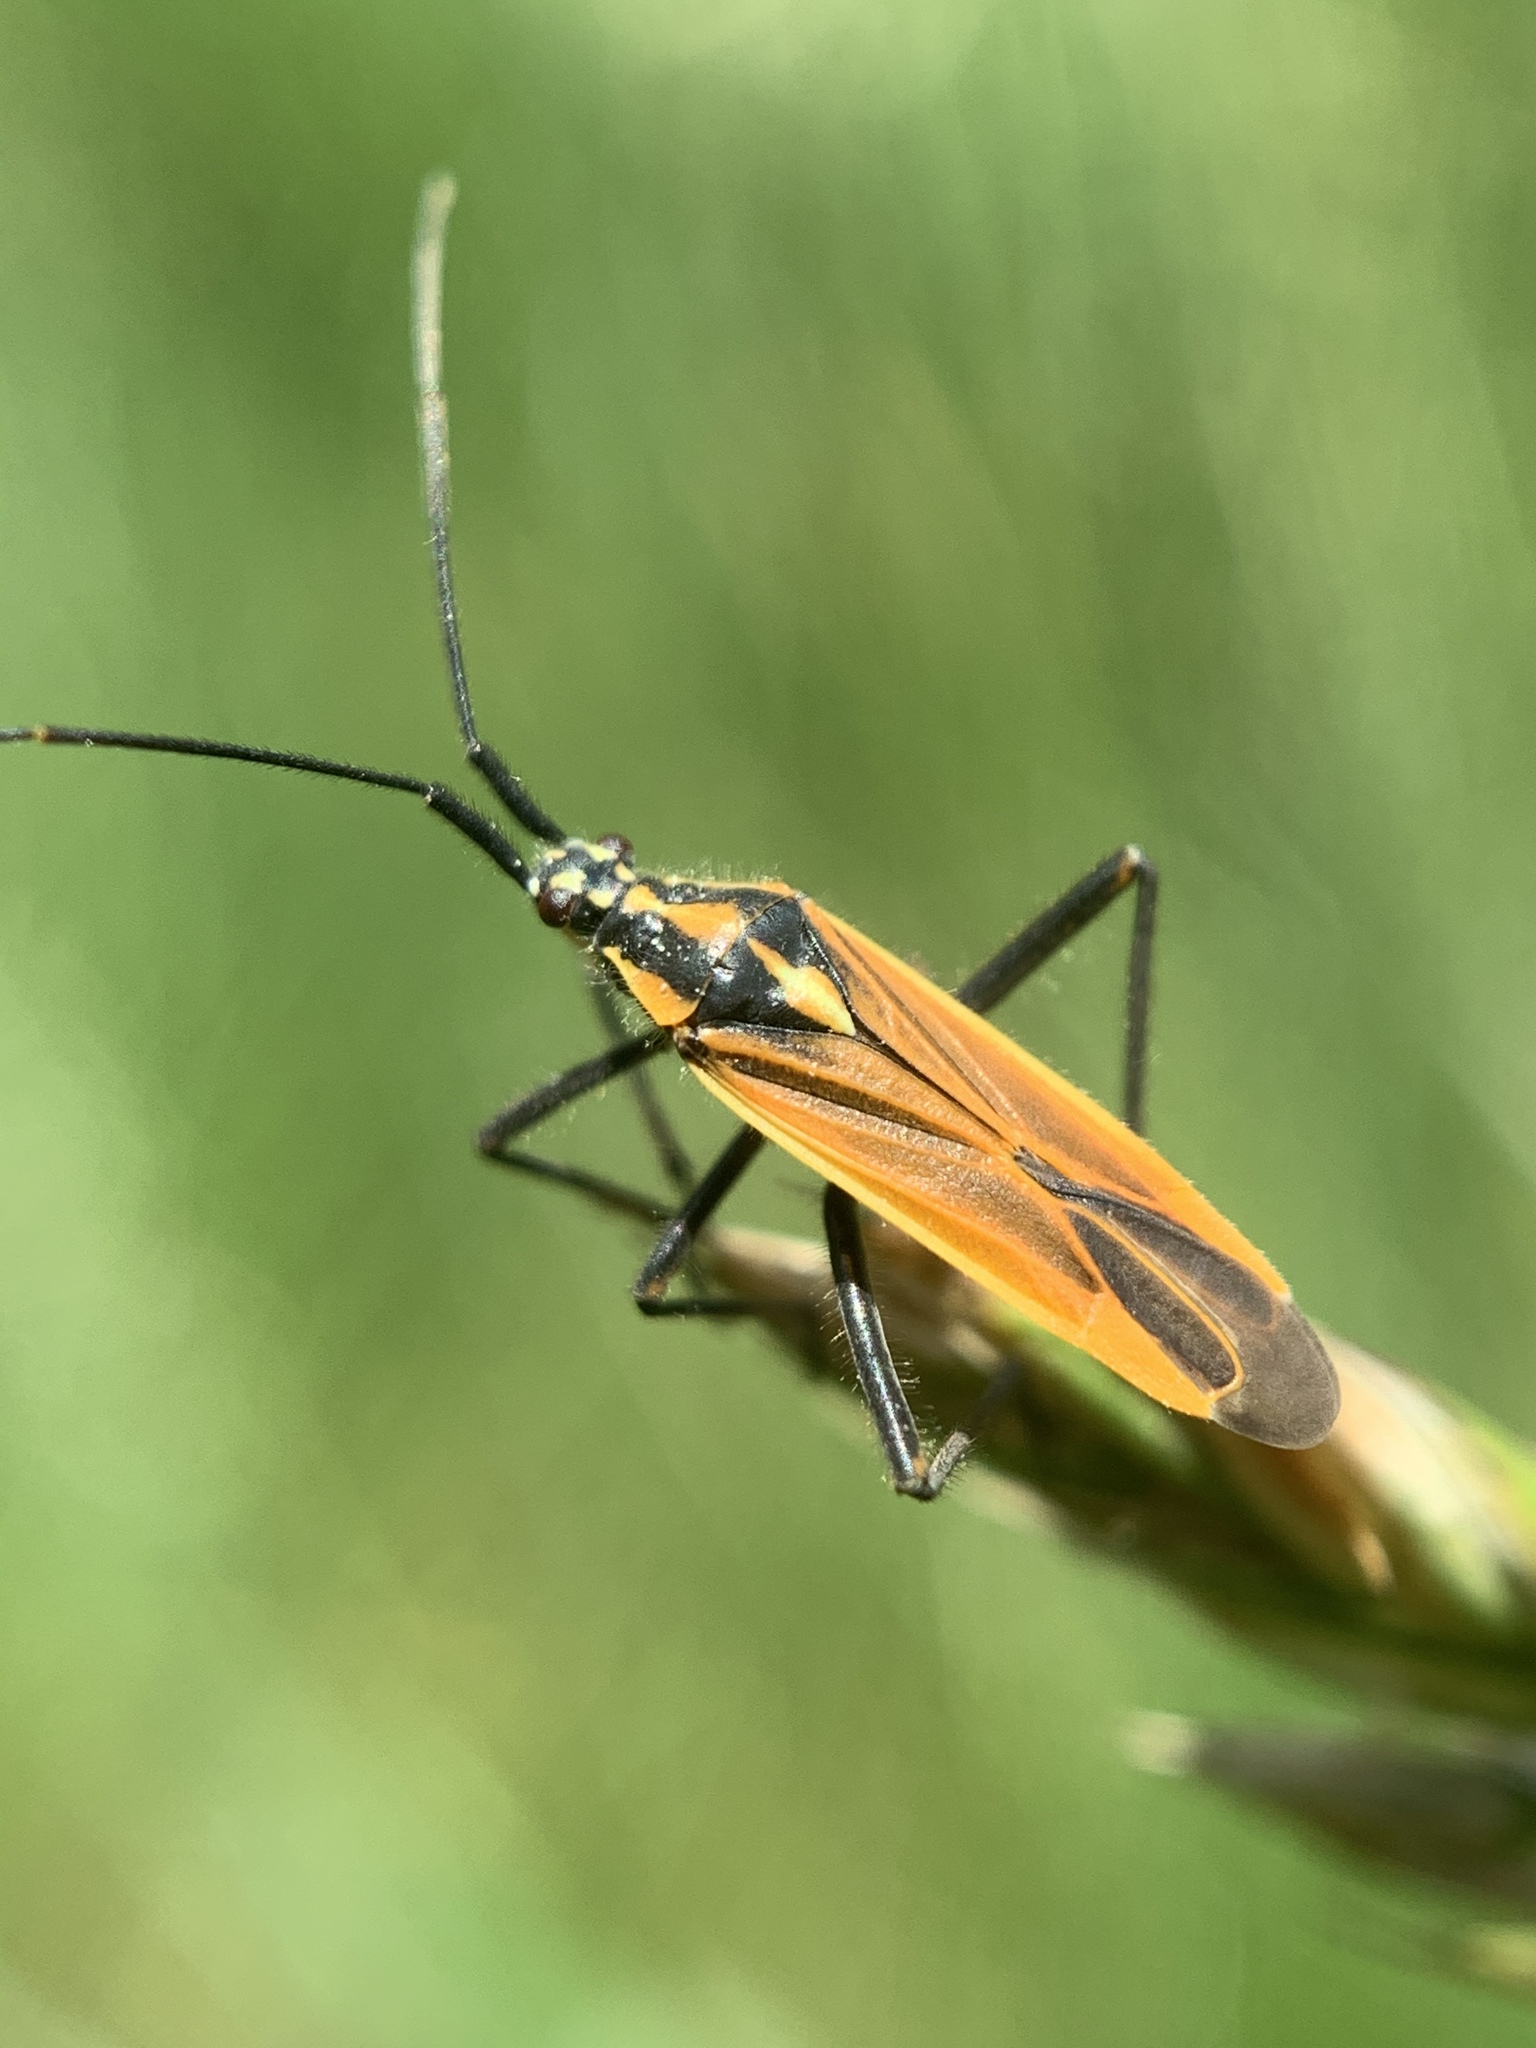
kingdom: Animalia
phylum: Arthropoda
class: Insecta
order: Hemiptera
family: Miridae
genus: Leptopterna
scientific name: Leptopterna dolabrata
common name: Meadow plant bug
